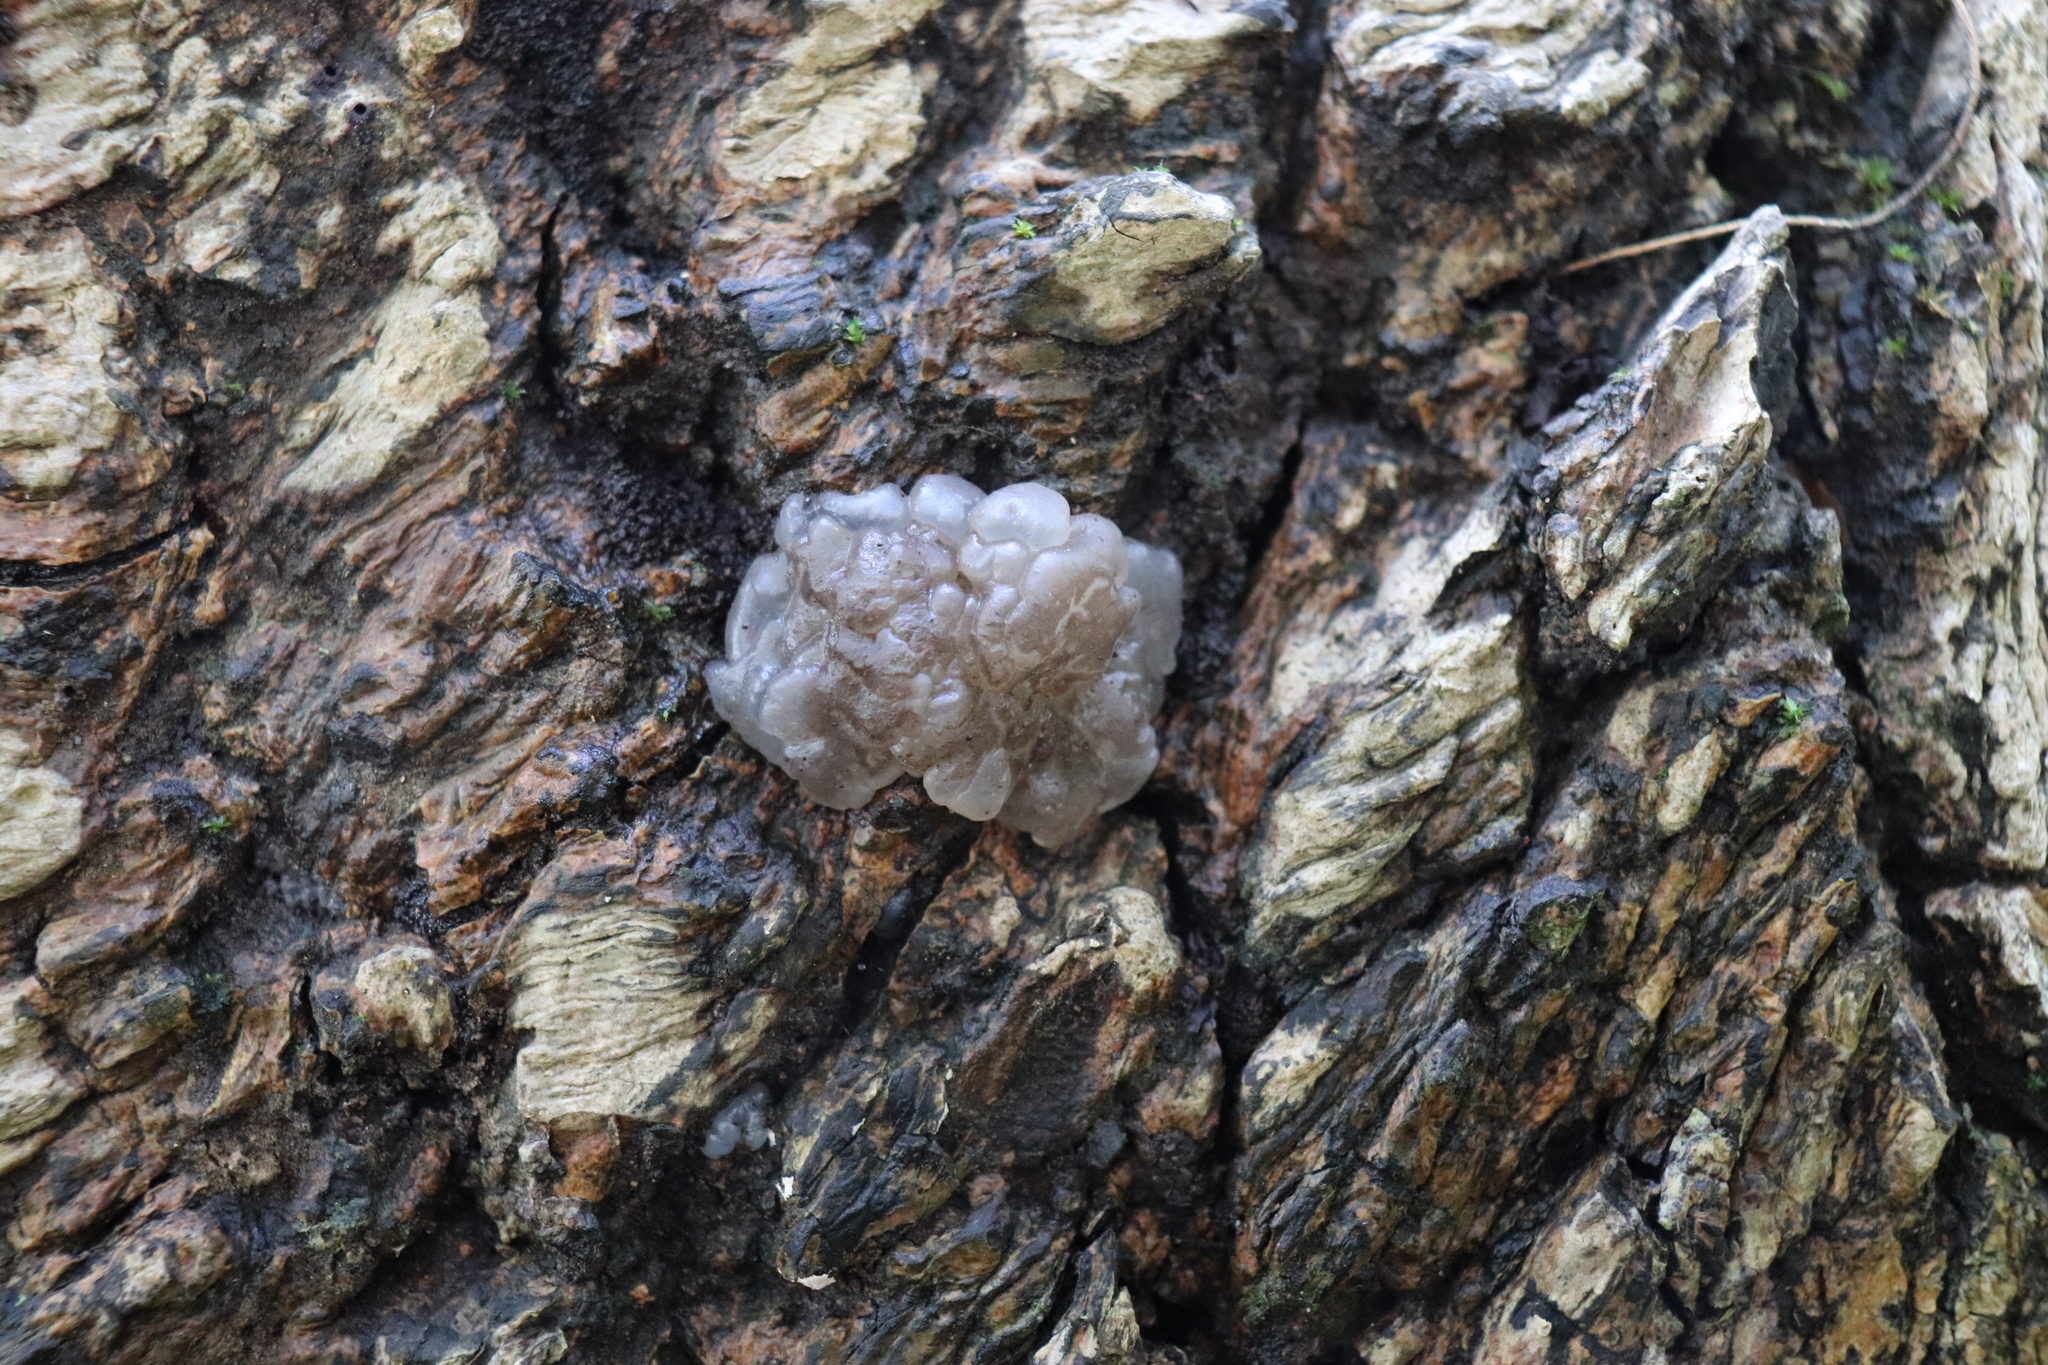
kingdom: Fungi
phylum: Basidiomycota
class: Agaricomycetes
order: Auriculariales
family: Auriculariaceae
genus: Tremellochaete
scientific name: Tremellochaete
